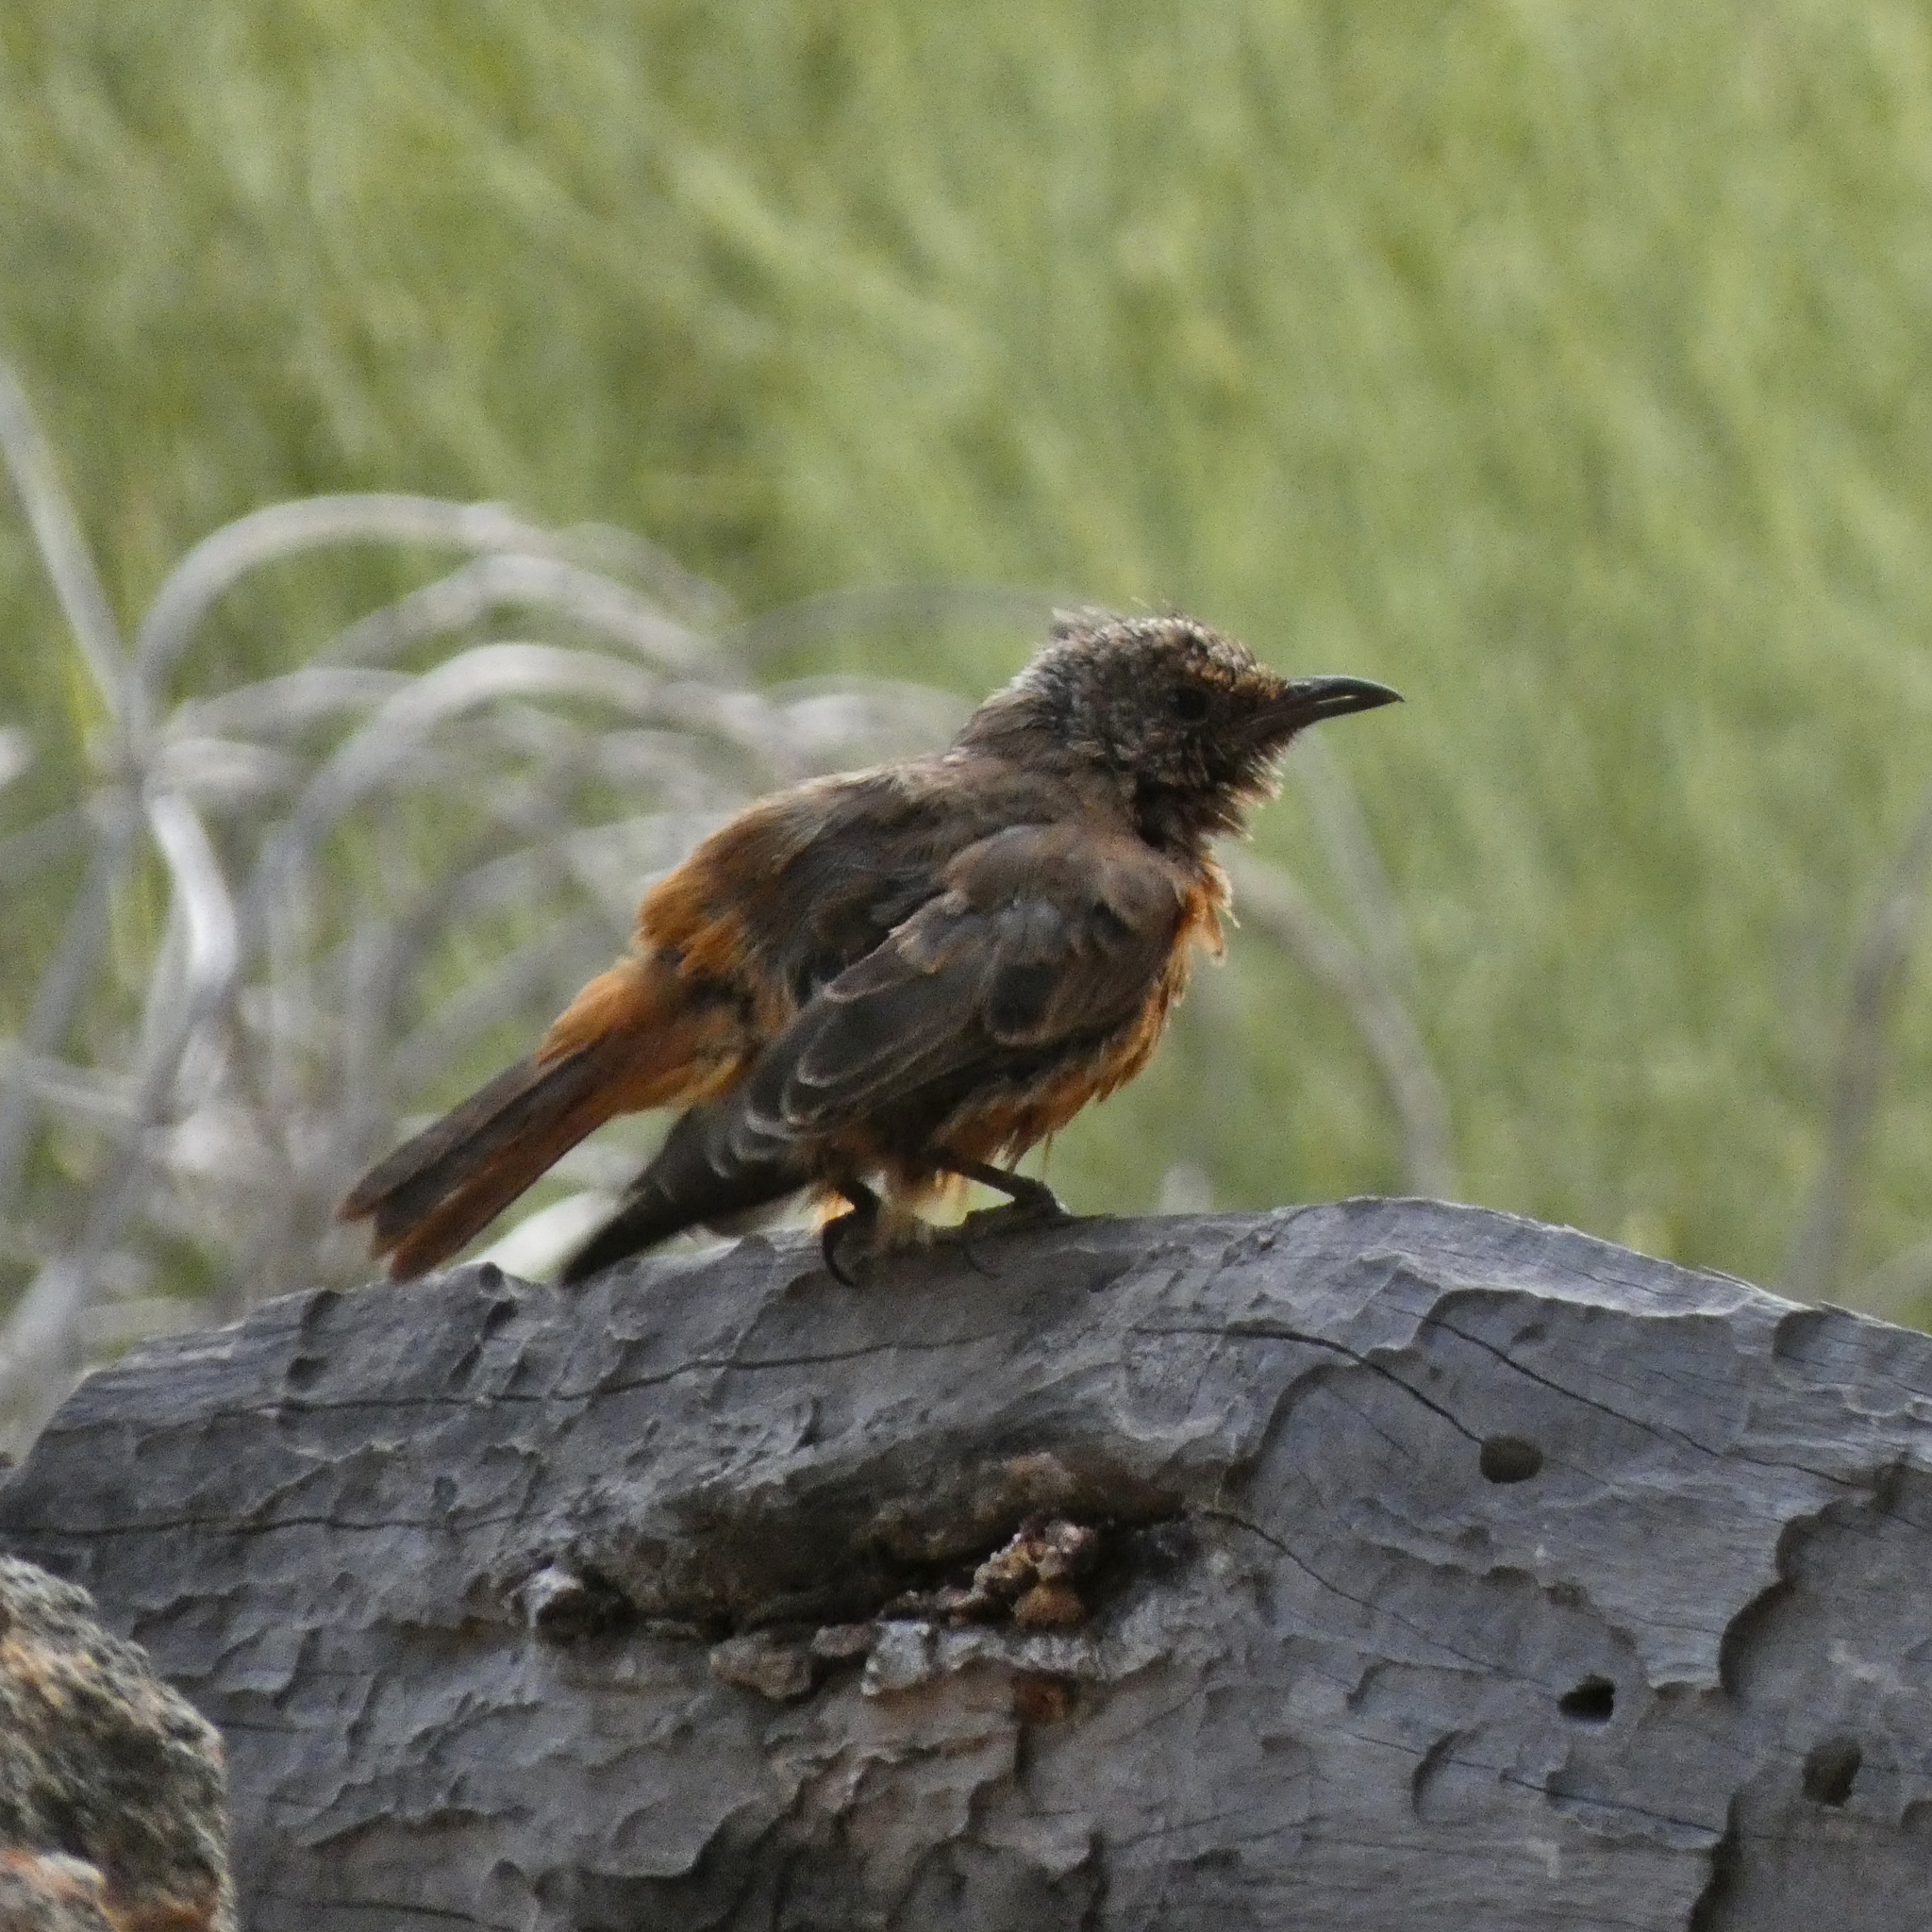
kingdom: Animalia
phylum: Chordata
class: Aves
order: Passeriformes
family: Muscicapidae
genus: Monticola
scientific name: Monticola rupestris
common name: Cape rock thrush
